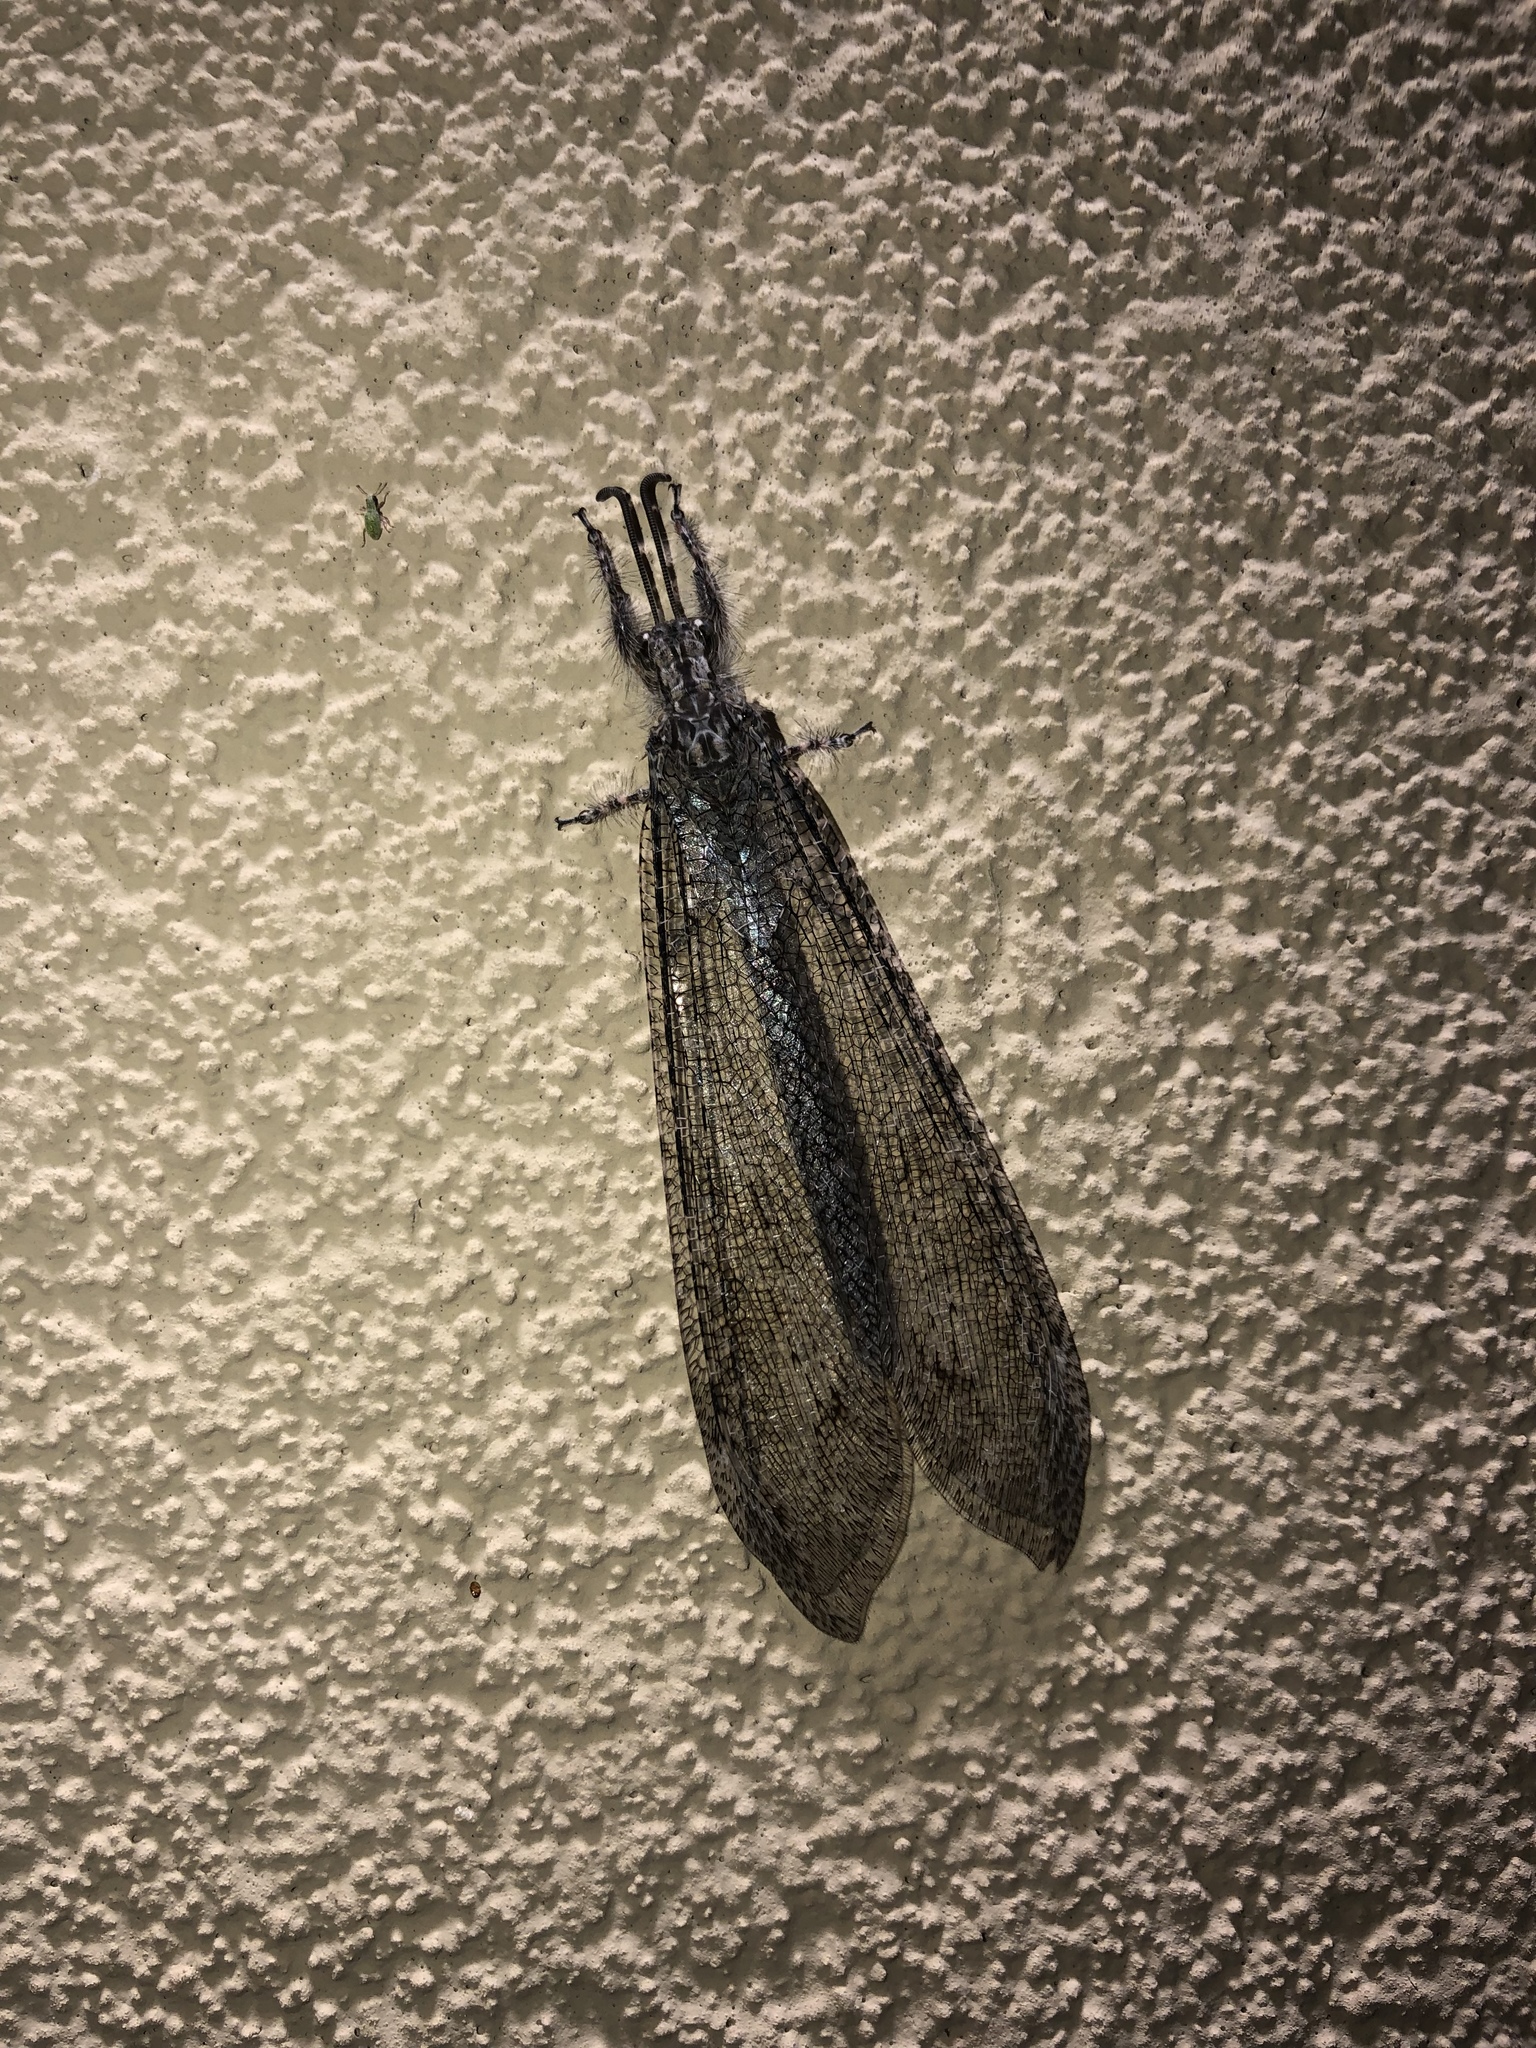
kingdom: Animalia
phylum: Arthropoda
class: Insecta
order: Neuroptera
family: Myrmeleontidae
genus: Vella
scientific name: Vella fallax
